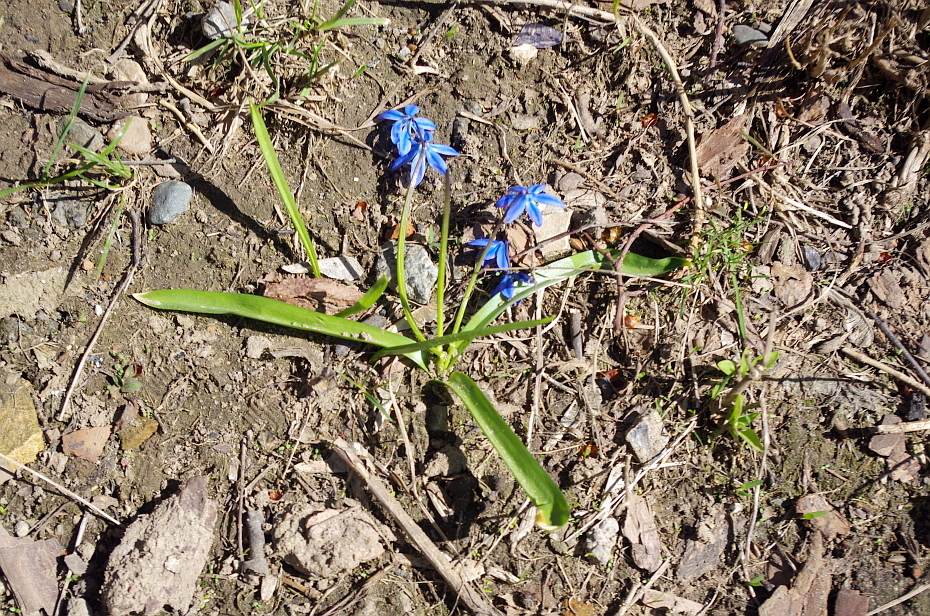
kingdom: Plantae
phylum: Tracheophyta
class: Liliopsida
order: Asparagales
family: Asparagaceae
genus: Scilla
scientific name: Scilla siberica
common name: Siberian squill
